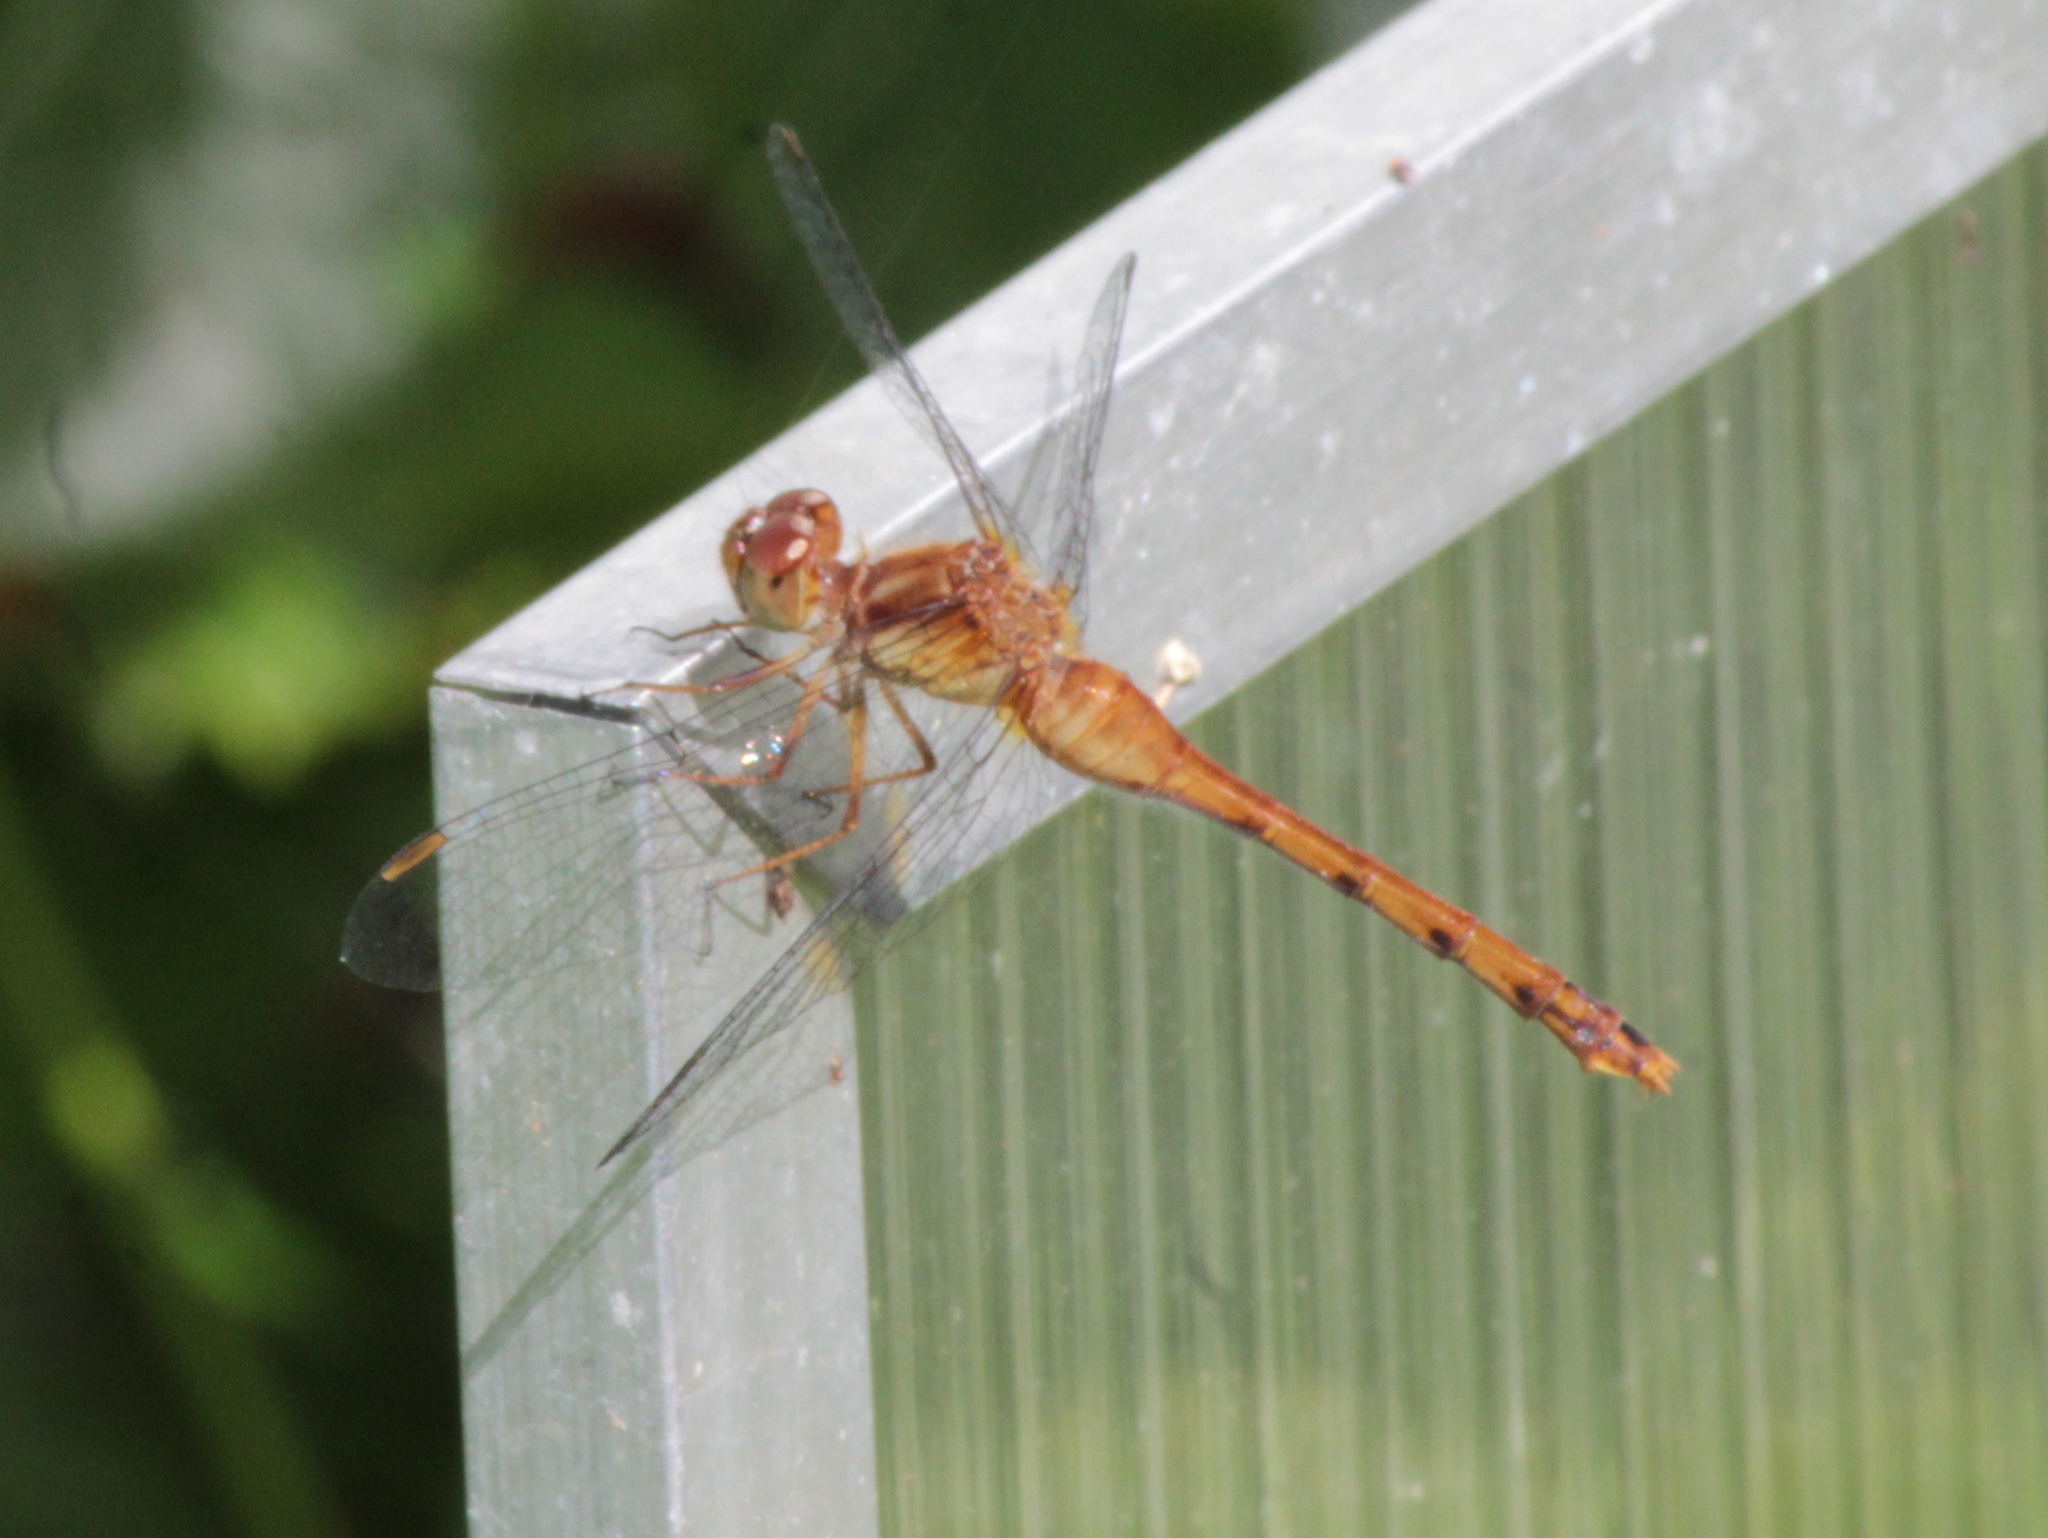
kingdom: Animalia
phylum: Arthropoda
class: Insecta
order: Odonata
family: Libellulidae
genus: Sympetrum
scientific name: Sympetrum vicinum
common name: Autumn meadowhawk
